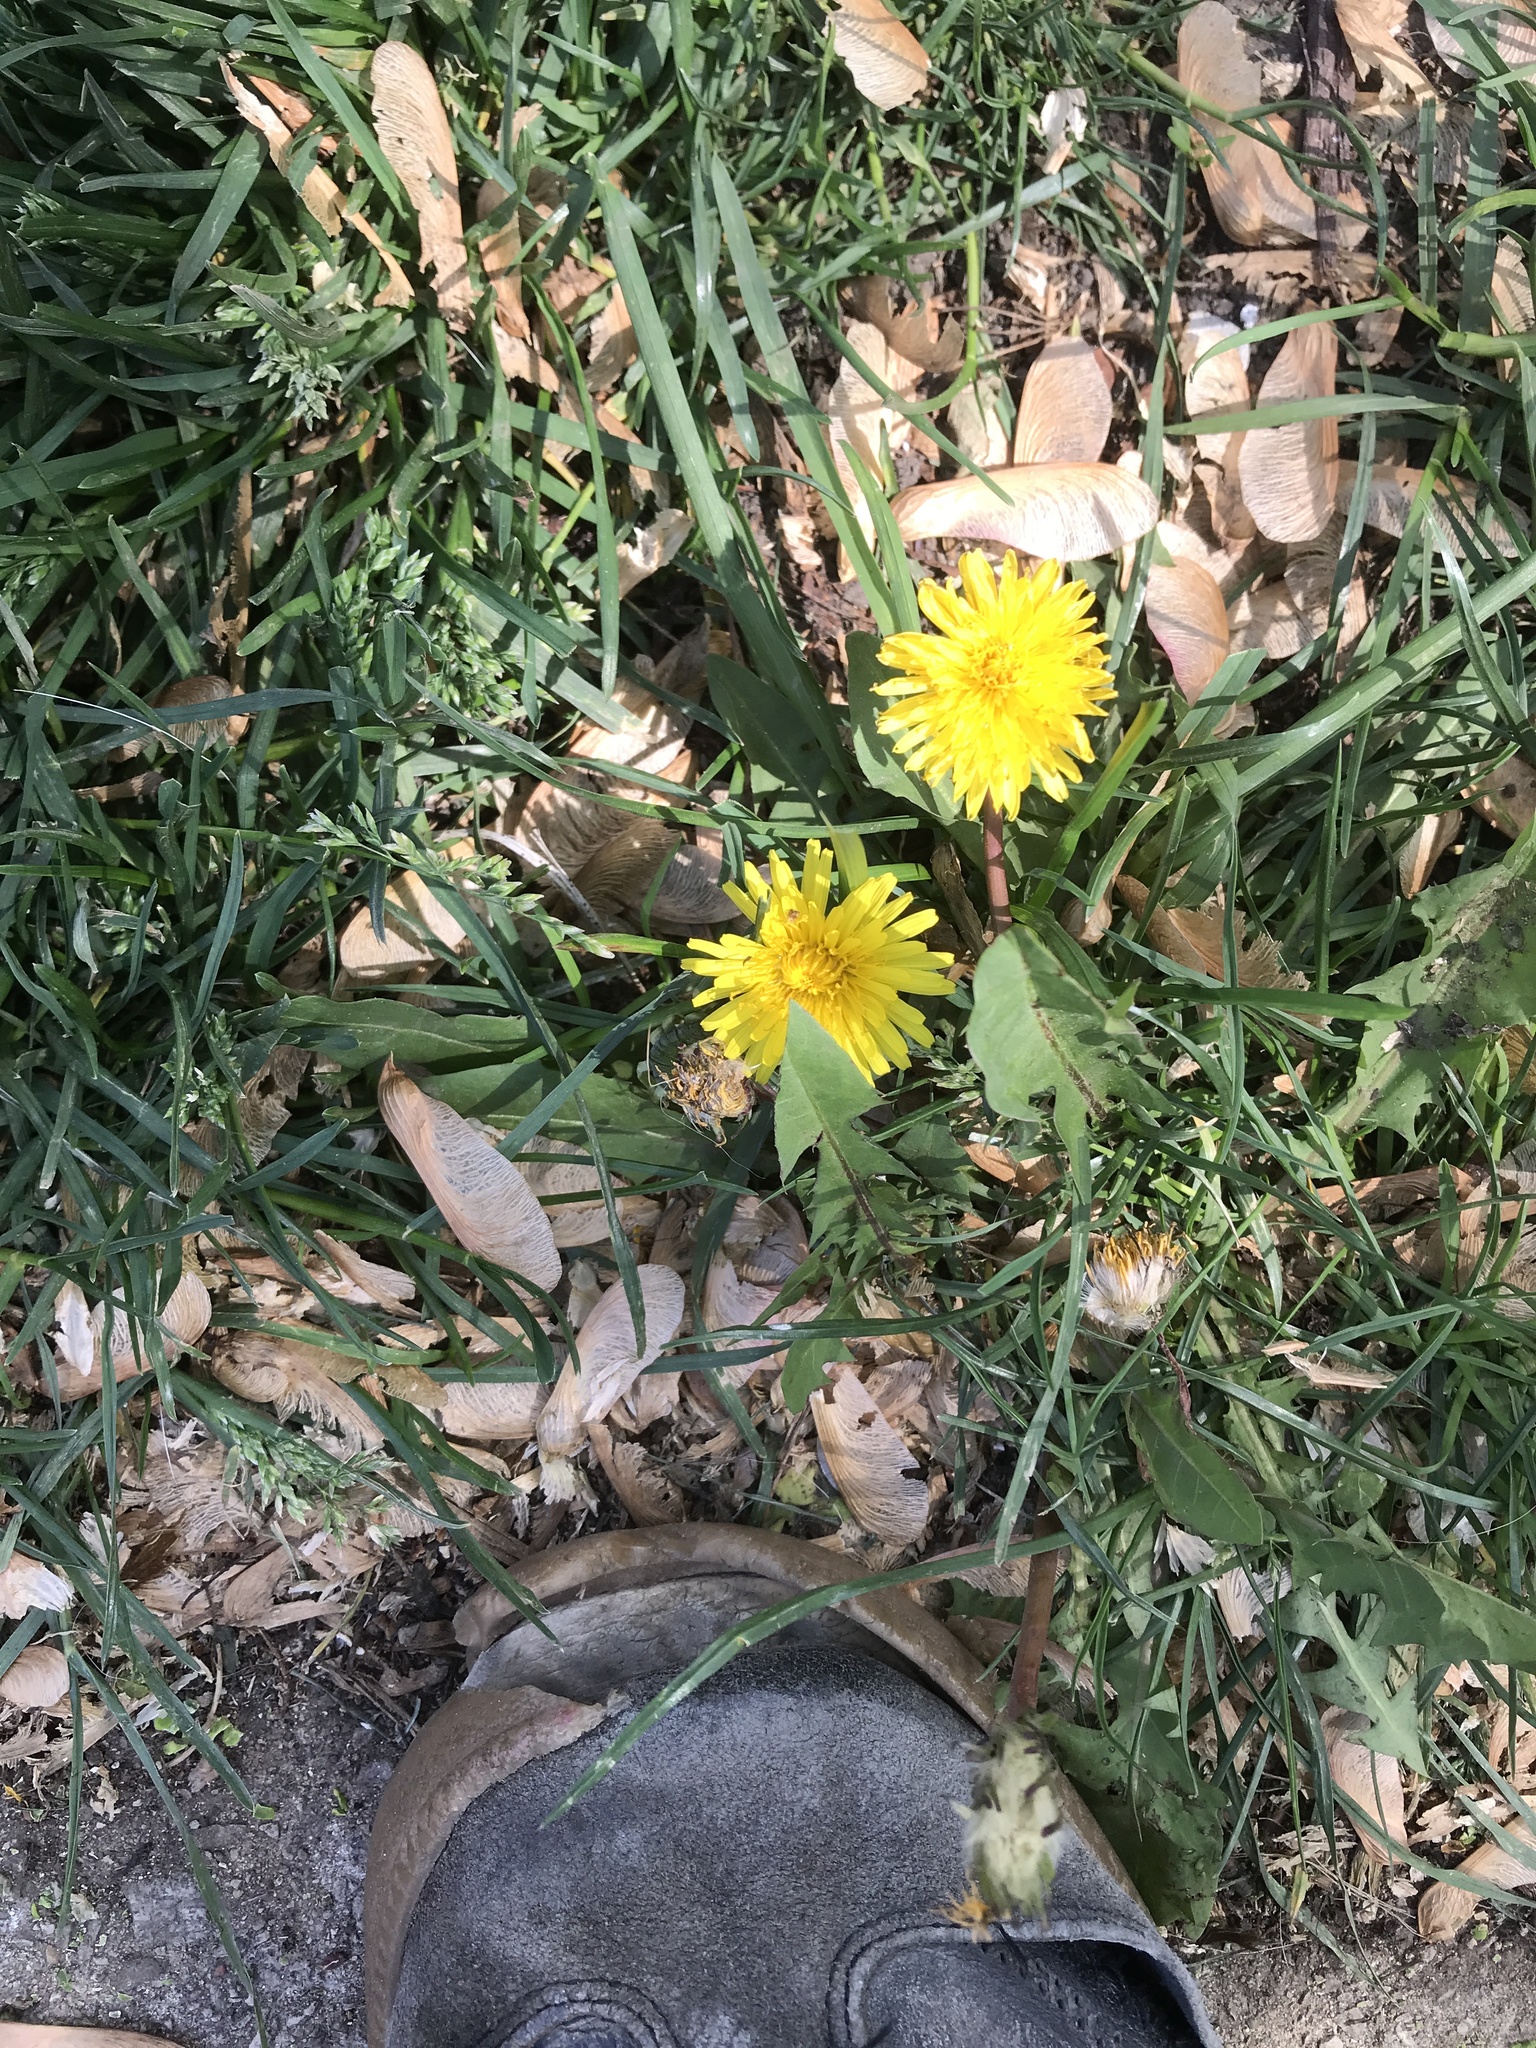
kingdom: Plantae
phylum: Tracheophyta
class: Magnoliopsida
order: Asterales
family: Asteraceae
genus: Taraxacum
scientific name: Taraxacum officinale
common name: Common dandelion
